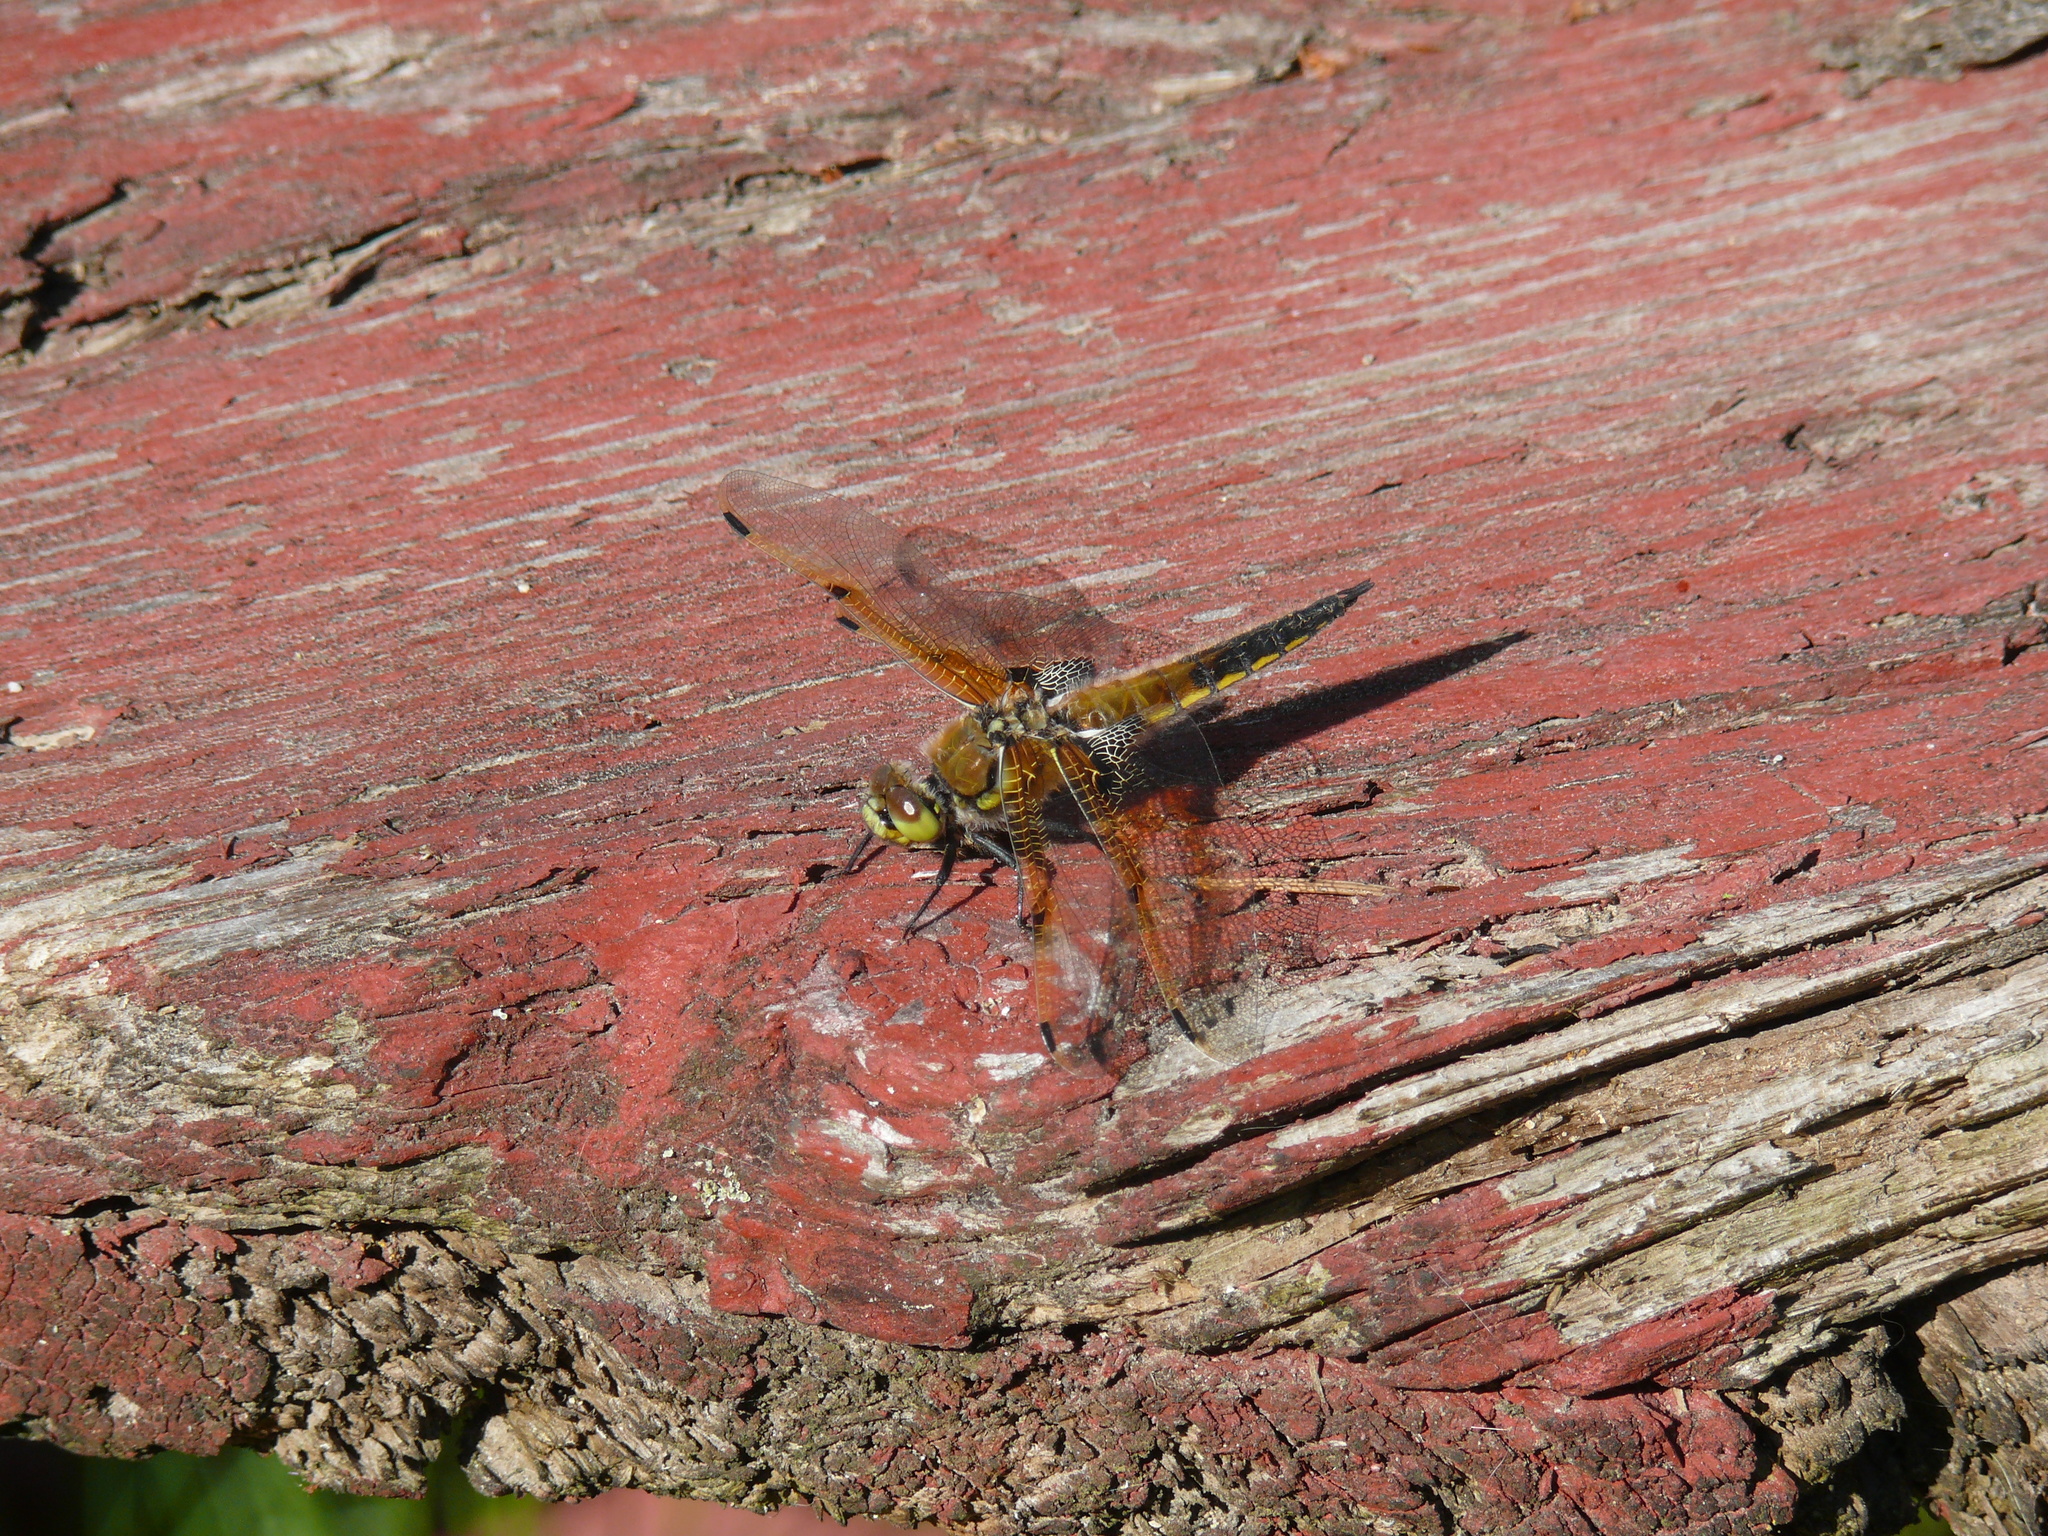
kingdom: Animalia
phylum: Arthropoda
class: Insecta
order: Odonata
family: Libellulidae
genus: Libellula
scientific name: Libellula quadrimaculata
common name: Four-spotted chaser
